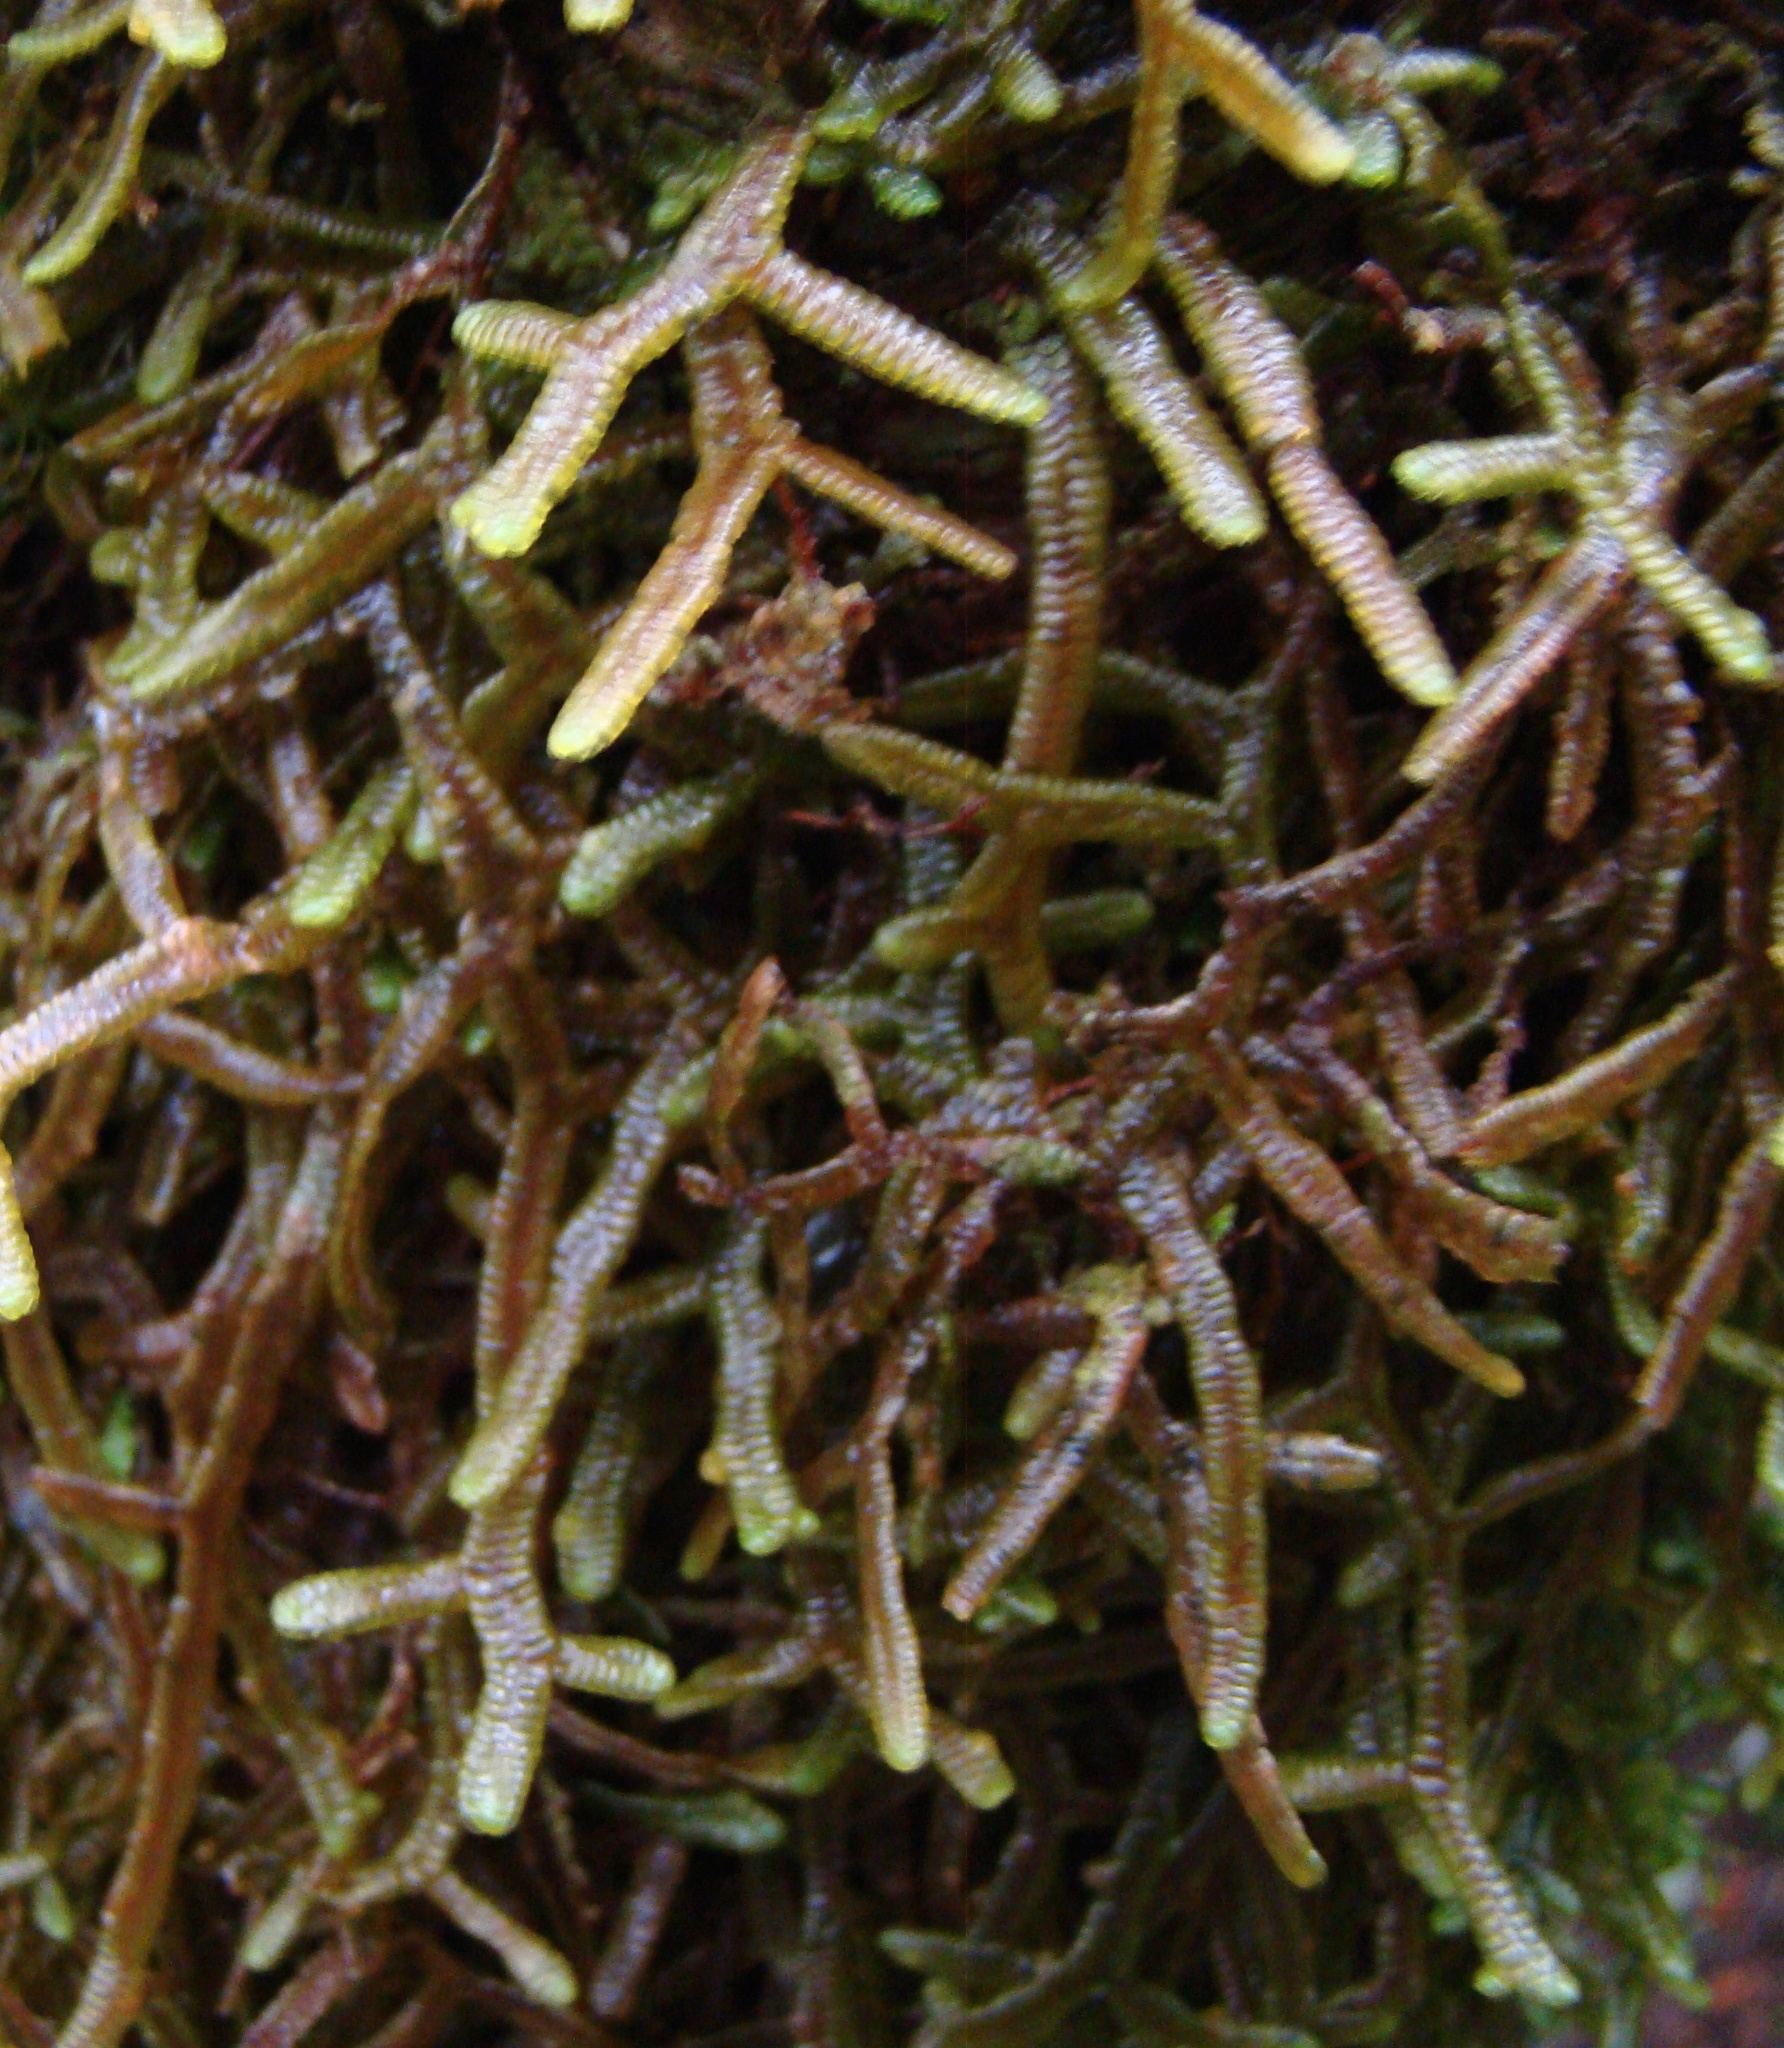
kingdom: Plantae
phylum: Marchantiophyta
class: Jungermanniopsida
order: Porellales
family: Porellaceae
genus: Porella
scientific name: Porella elegantula
